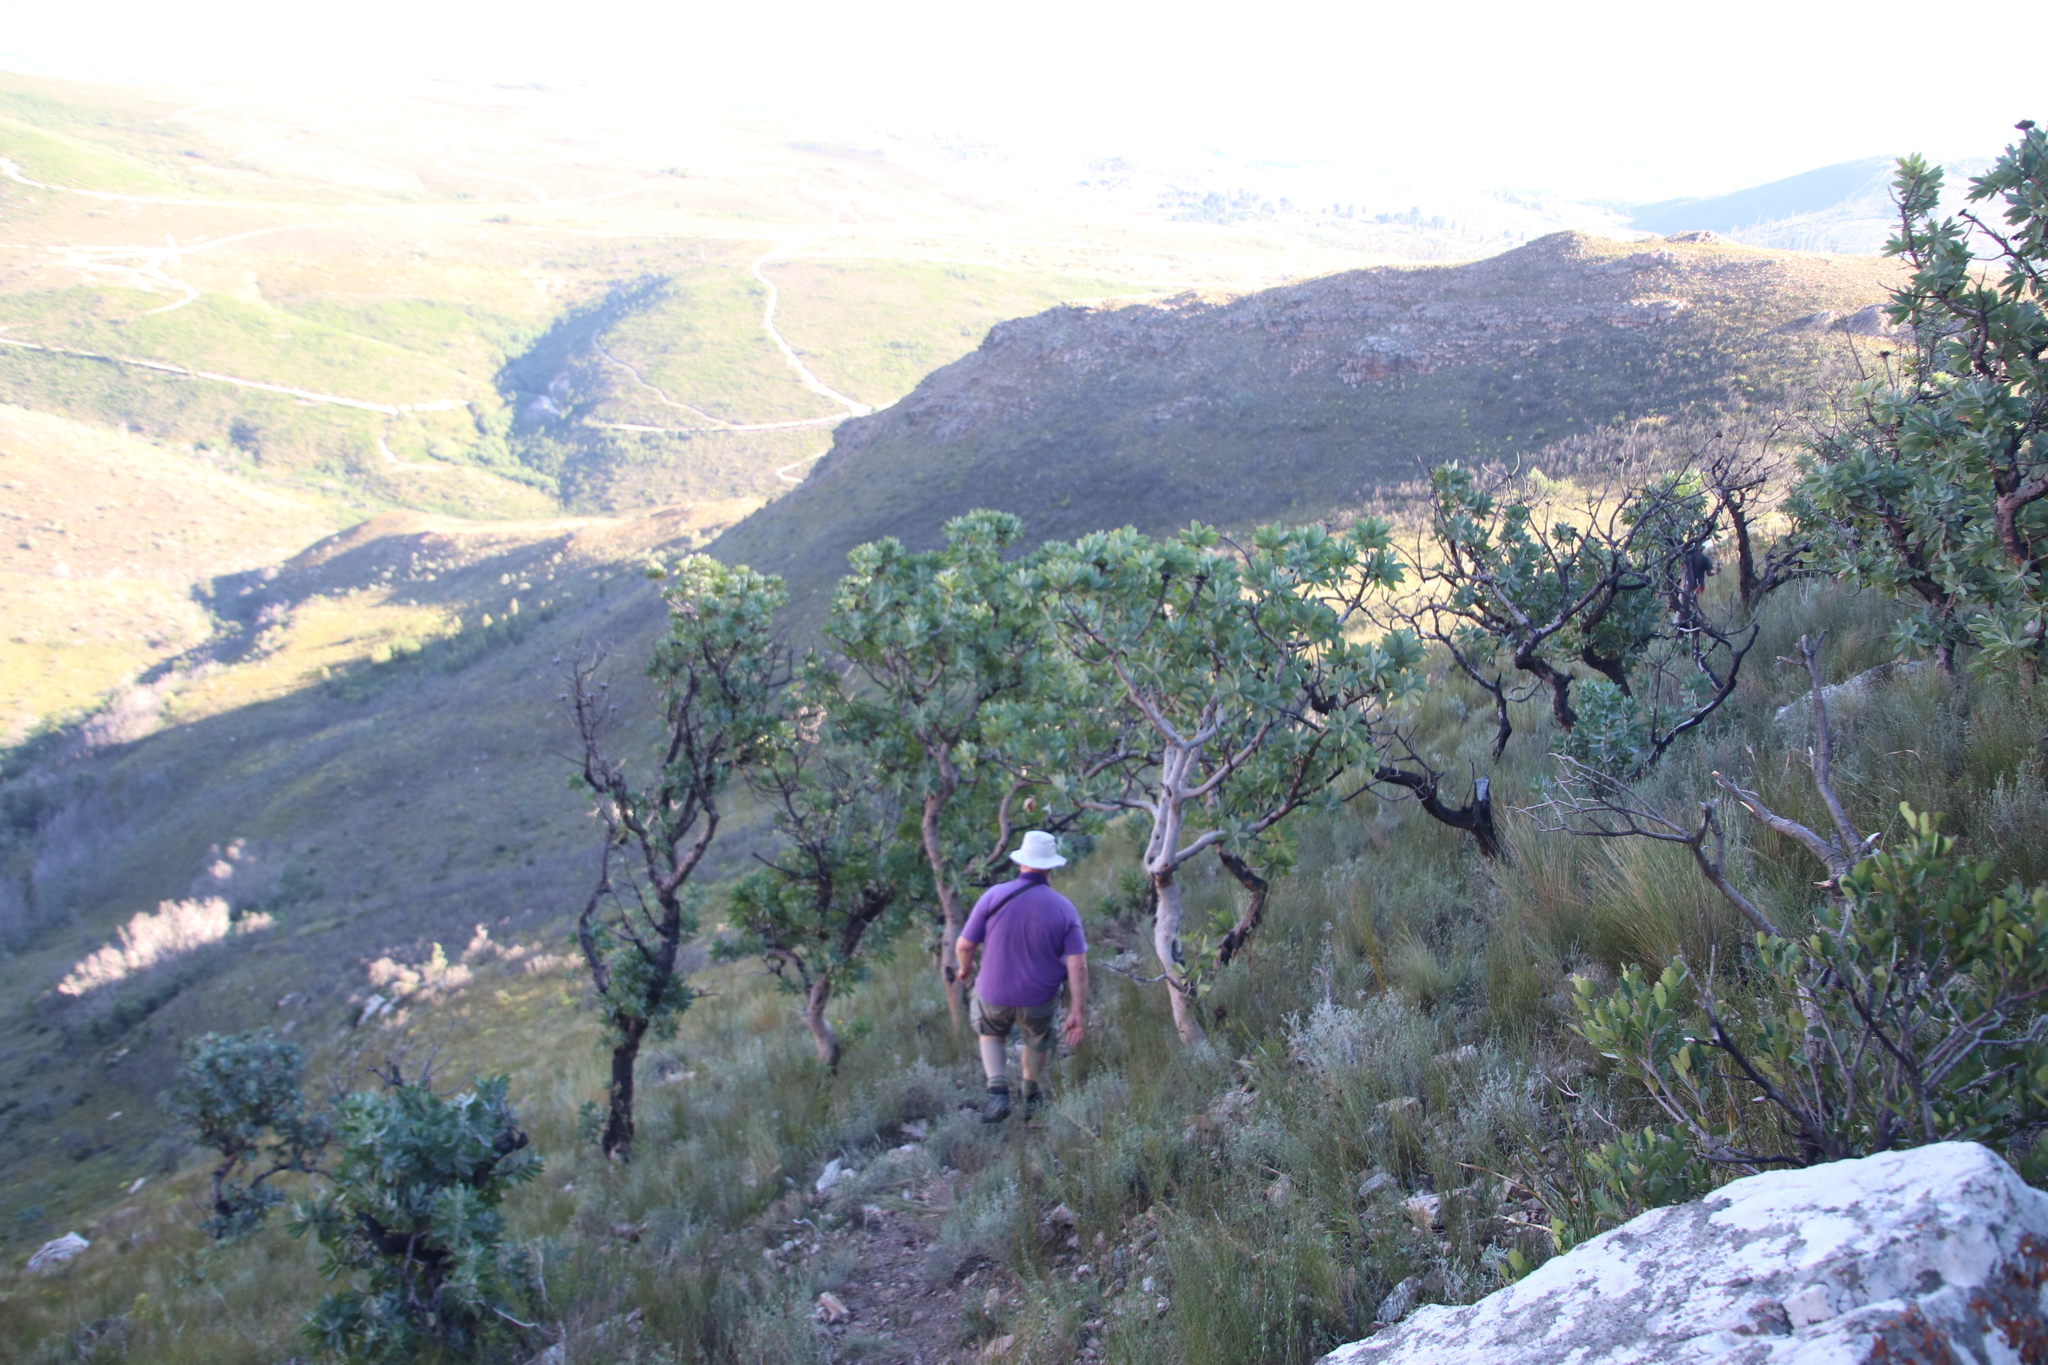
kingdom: Plantae
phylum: Tracheophyta
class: Magnoliopsida
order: Proteales
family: Proteaceae
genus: Protea
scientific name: Protea nitida
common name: Tree protea
